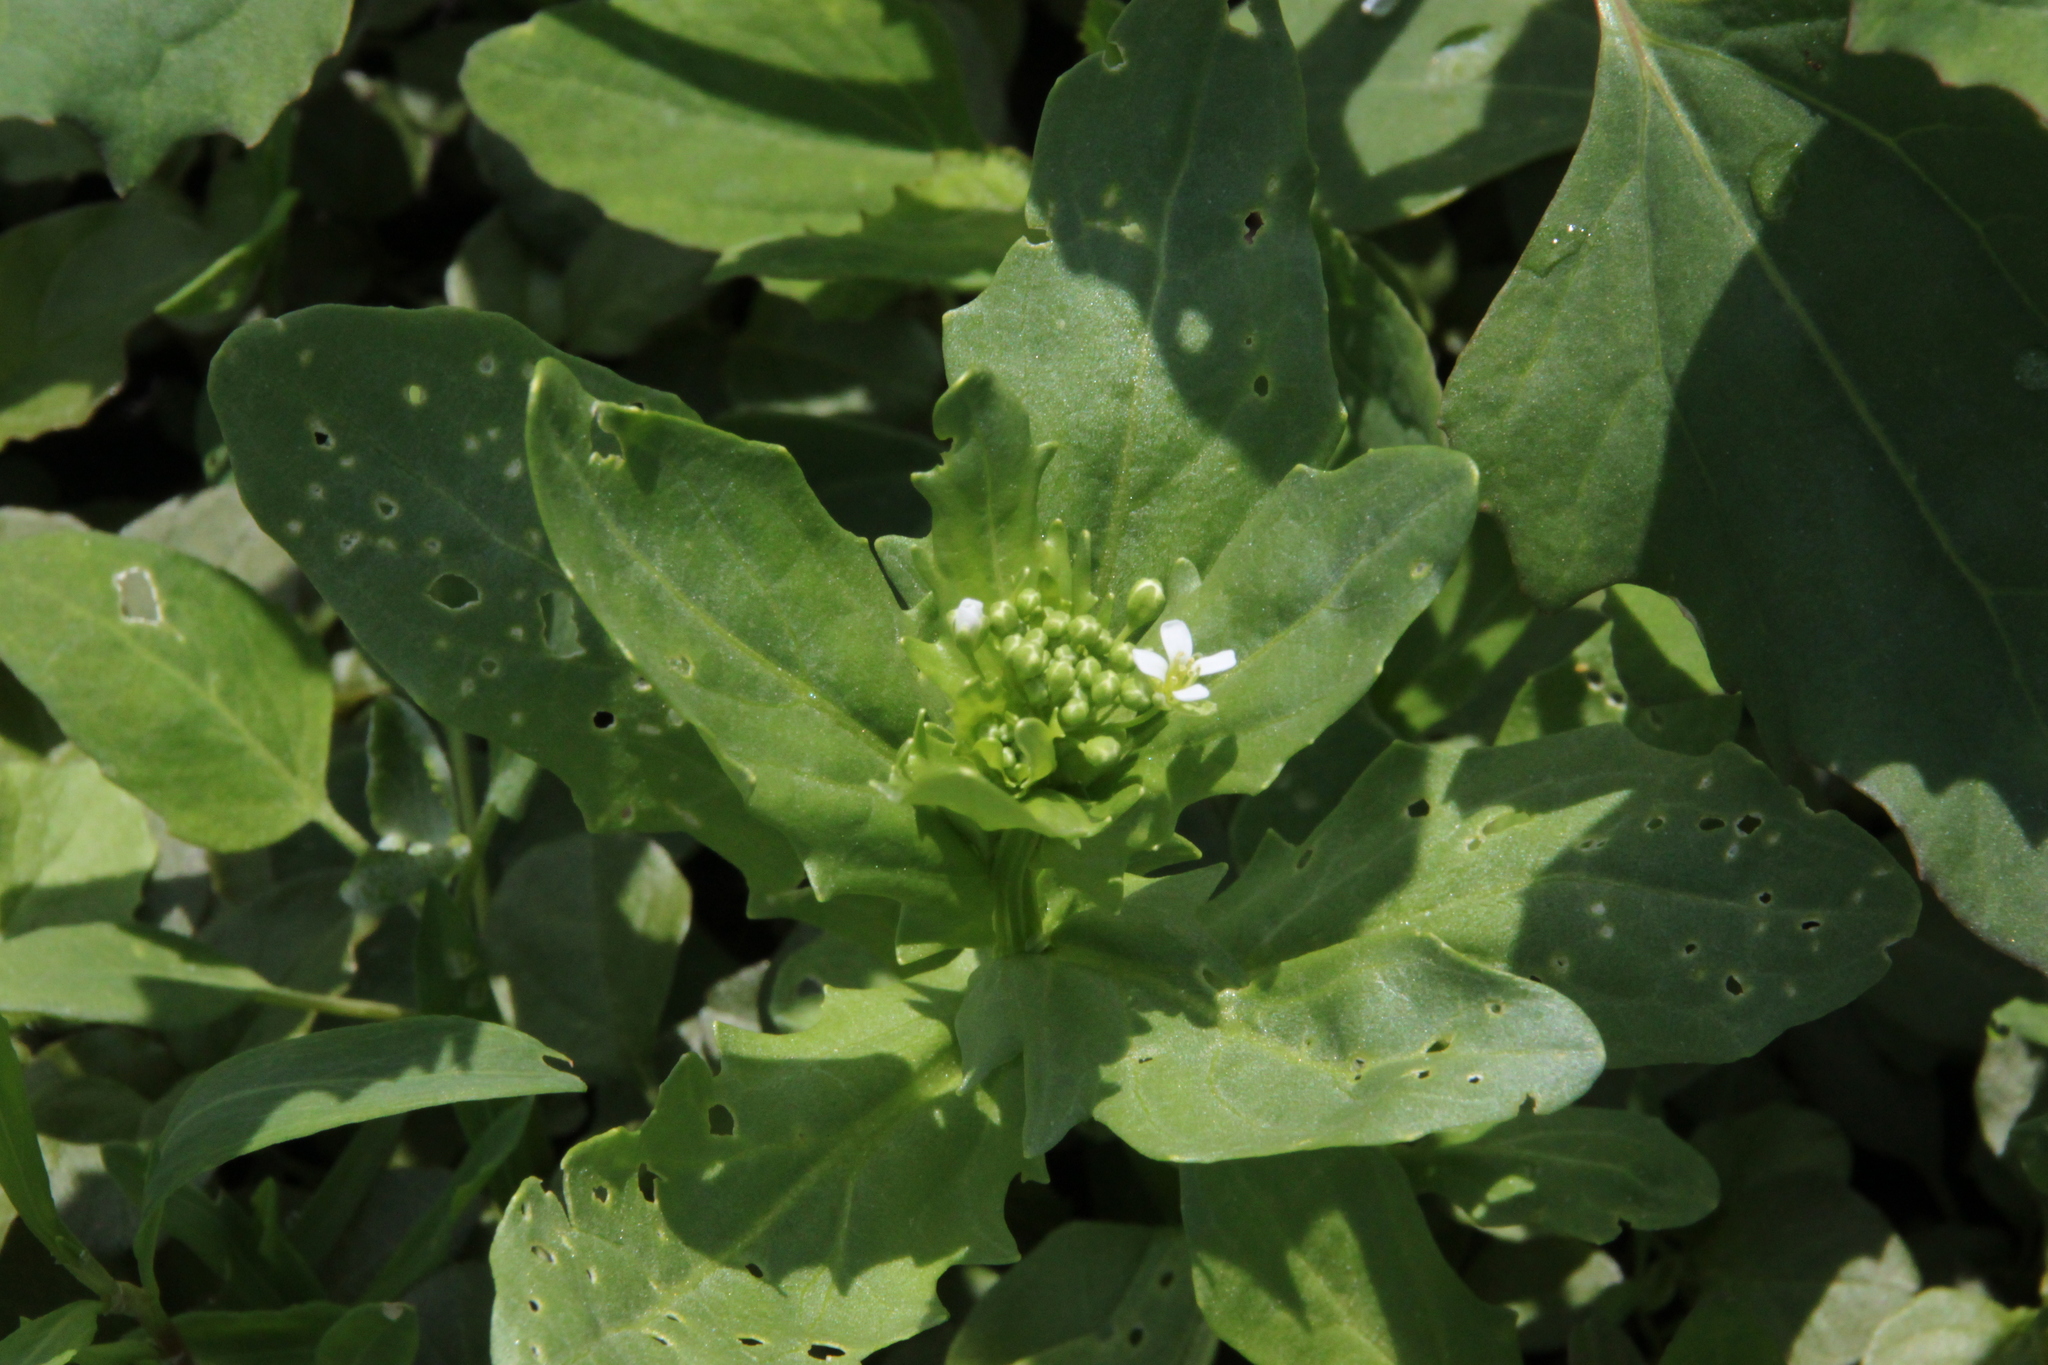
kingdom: Plantae
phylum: Tracheophyta
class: Magnoliopsida
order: Brassicales
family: Brassicaceae
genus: Thlaspi
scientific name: Thlaspi arvense
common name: Field pennycress
